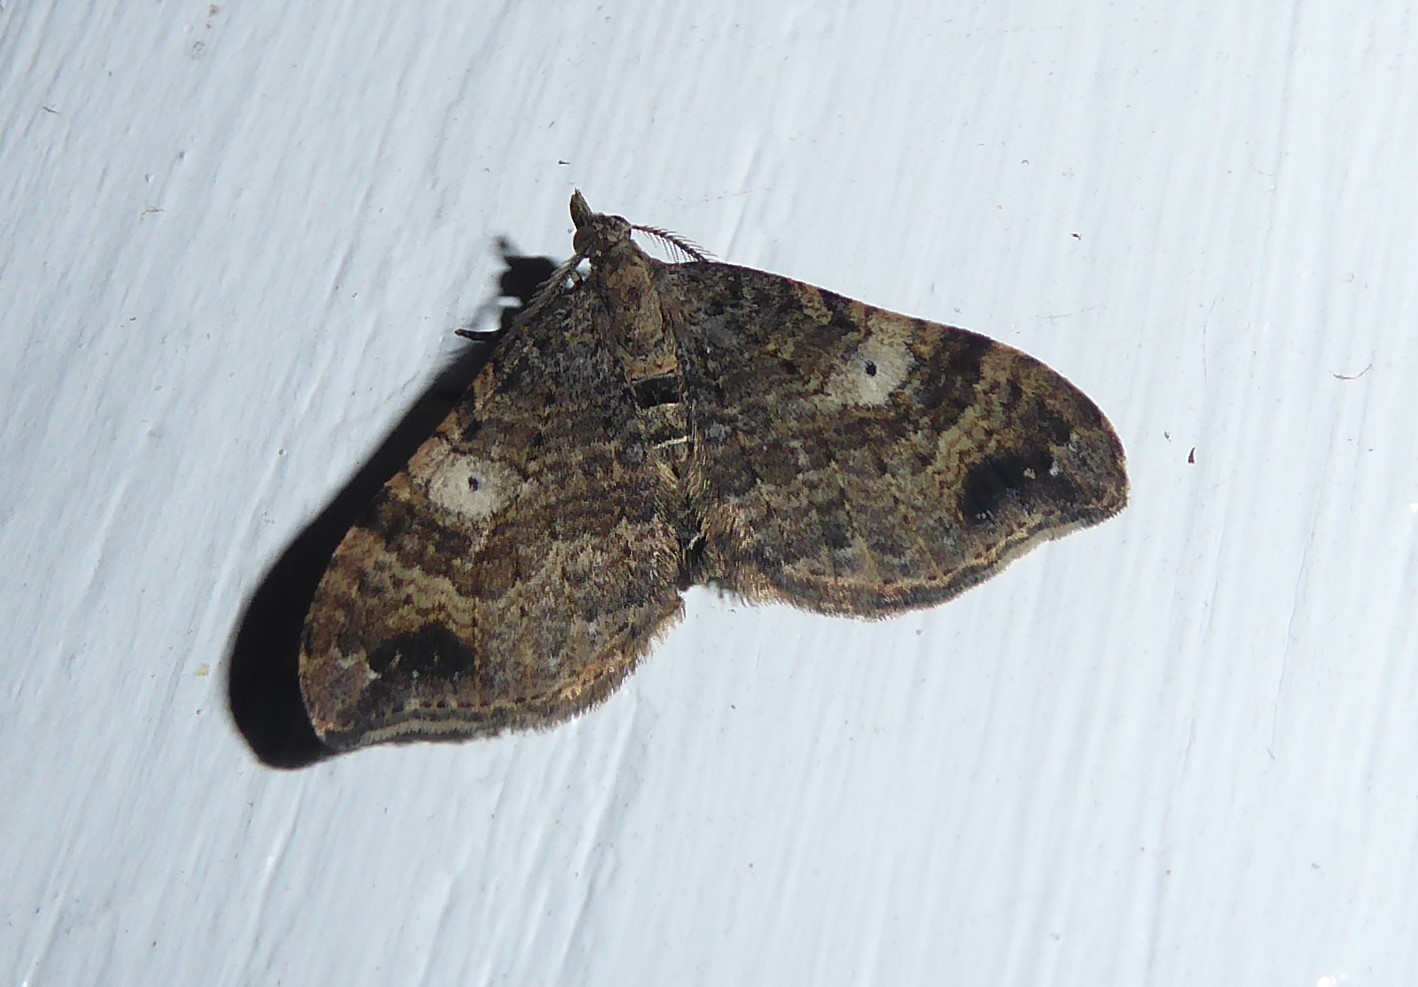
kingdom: Animalia
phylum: Arthropoda
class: Insecta
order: Lepidoptera
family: Geometridae
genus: Homodotis
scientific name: Homodotis falcata
